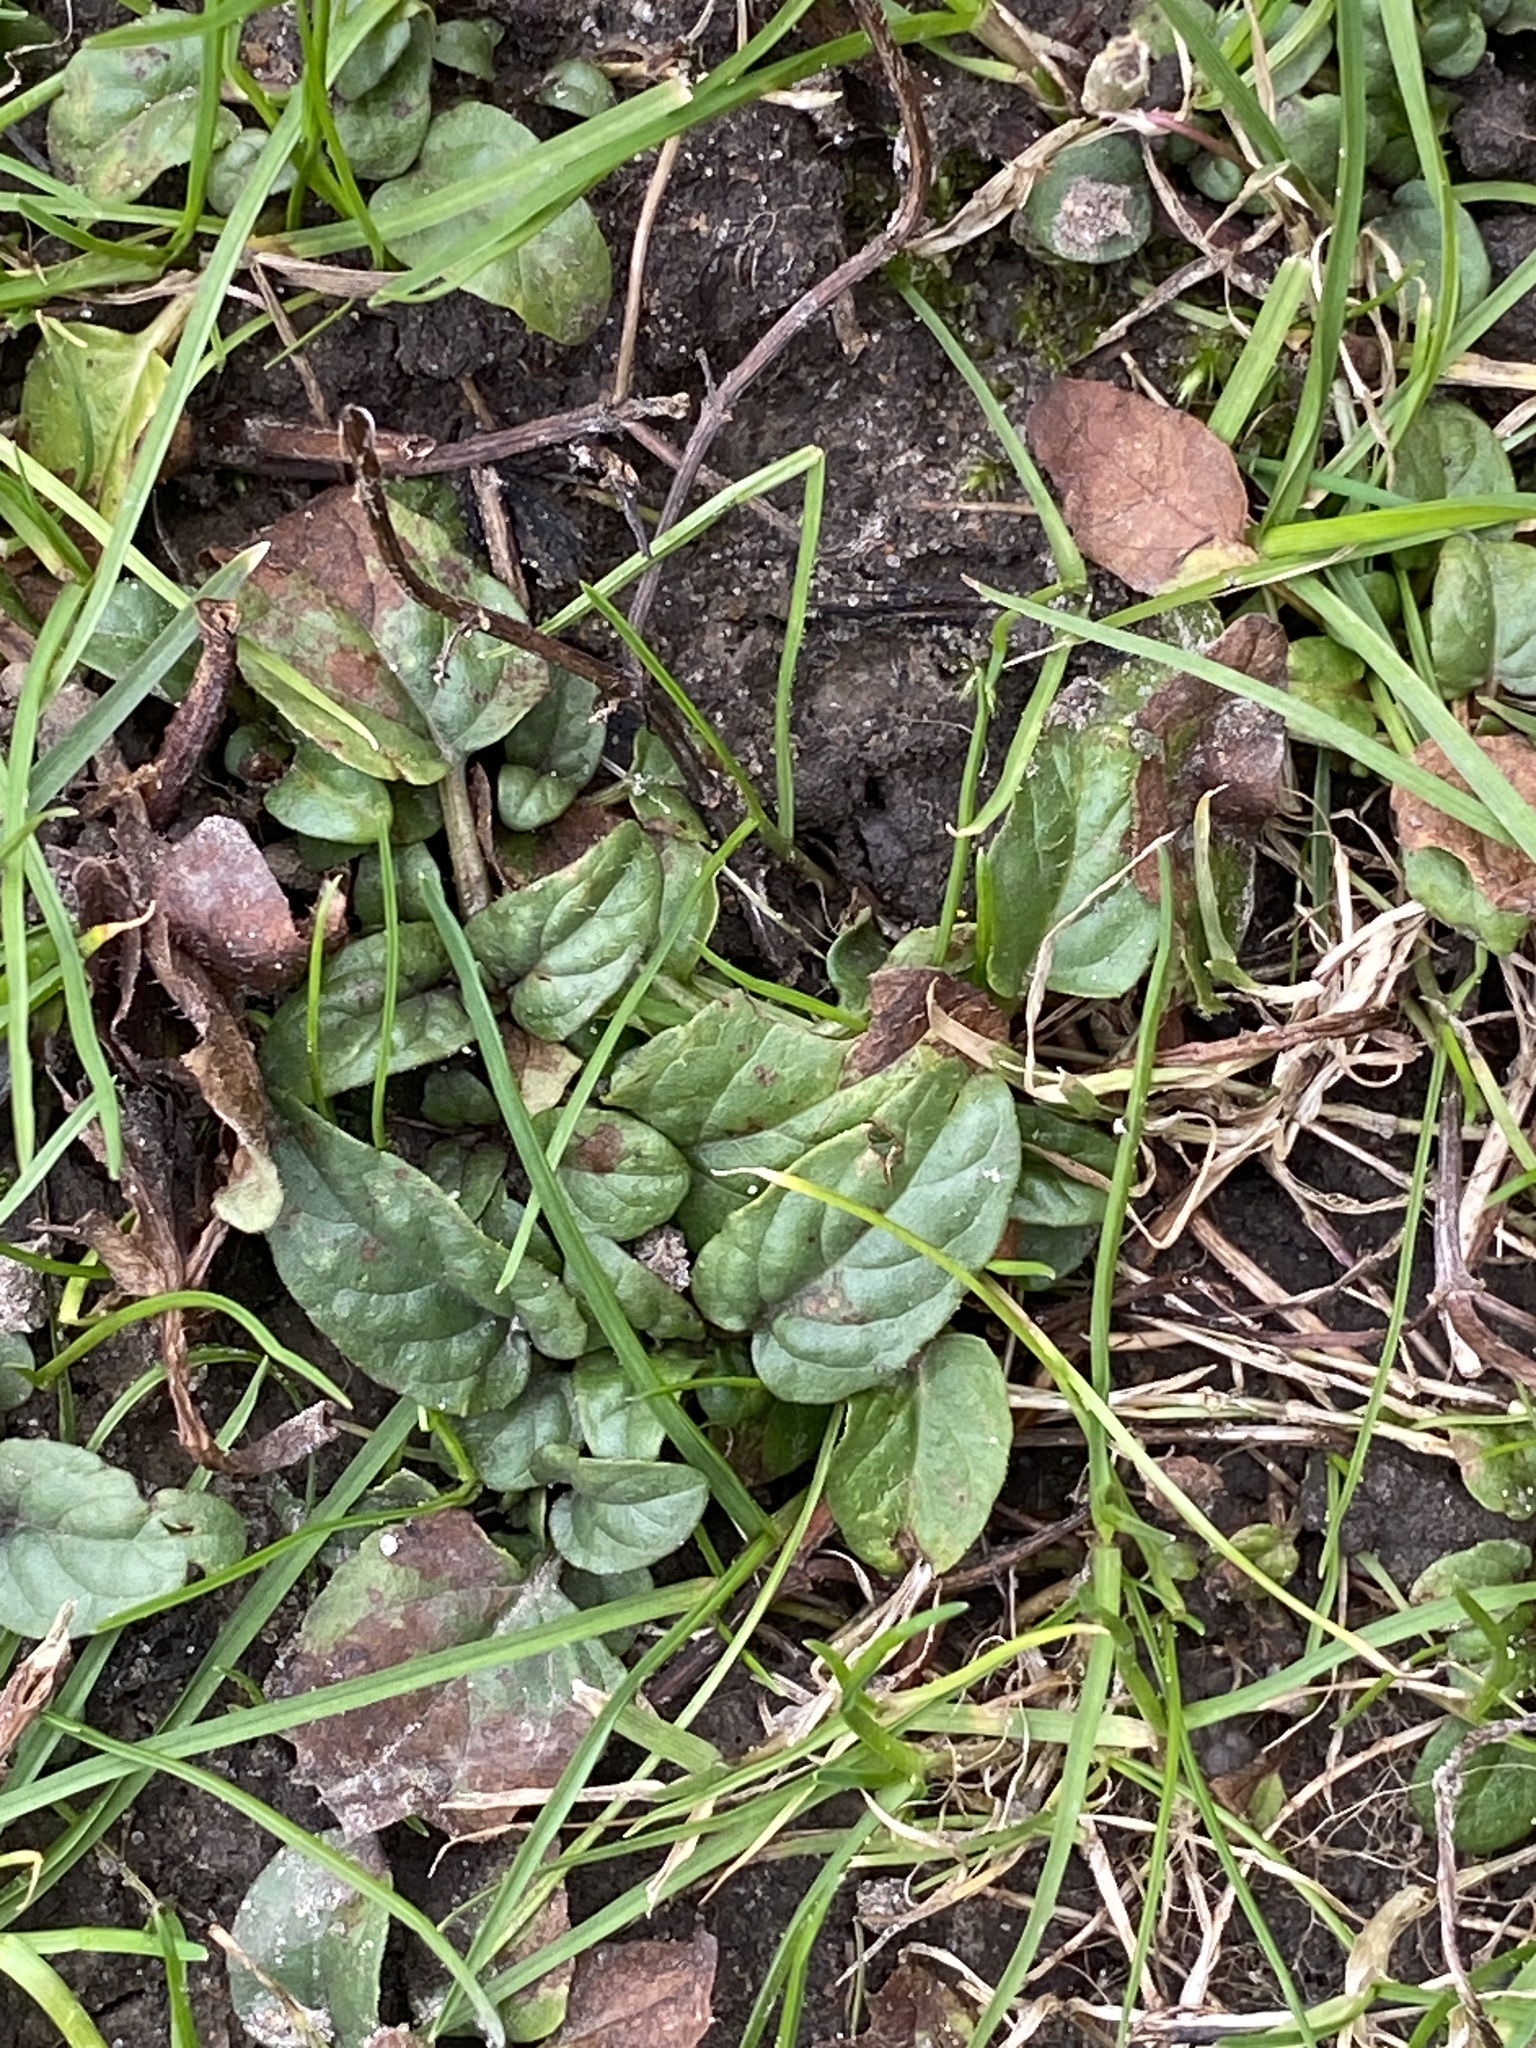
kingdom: Plantae
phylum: Tracheophyta
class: Magnoliopsida
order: Lamiales
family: Lamiaceae
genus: Prunella
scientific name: Prunella vulgaris
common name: Heal-all
